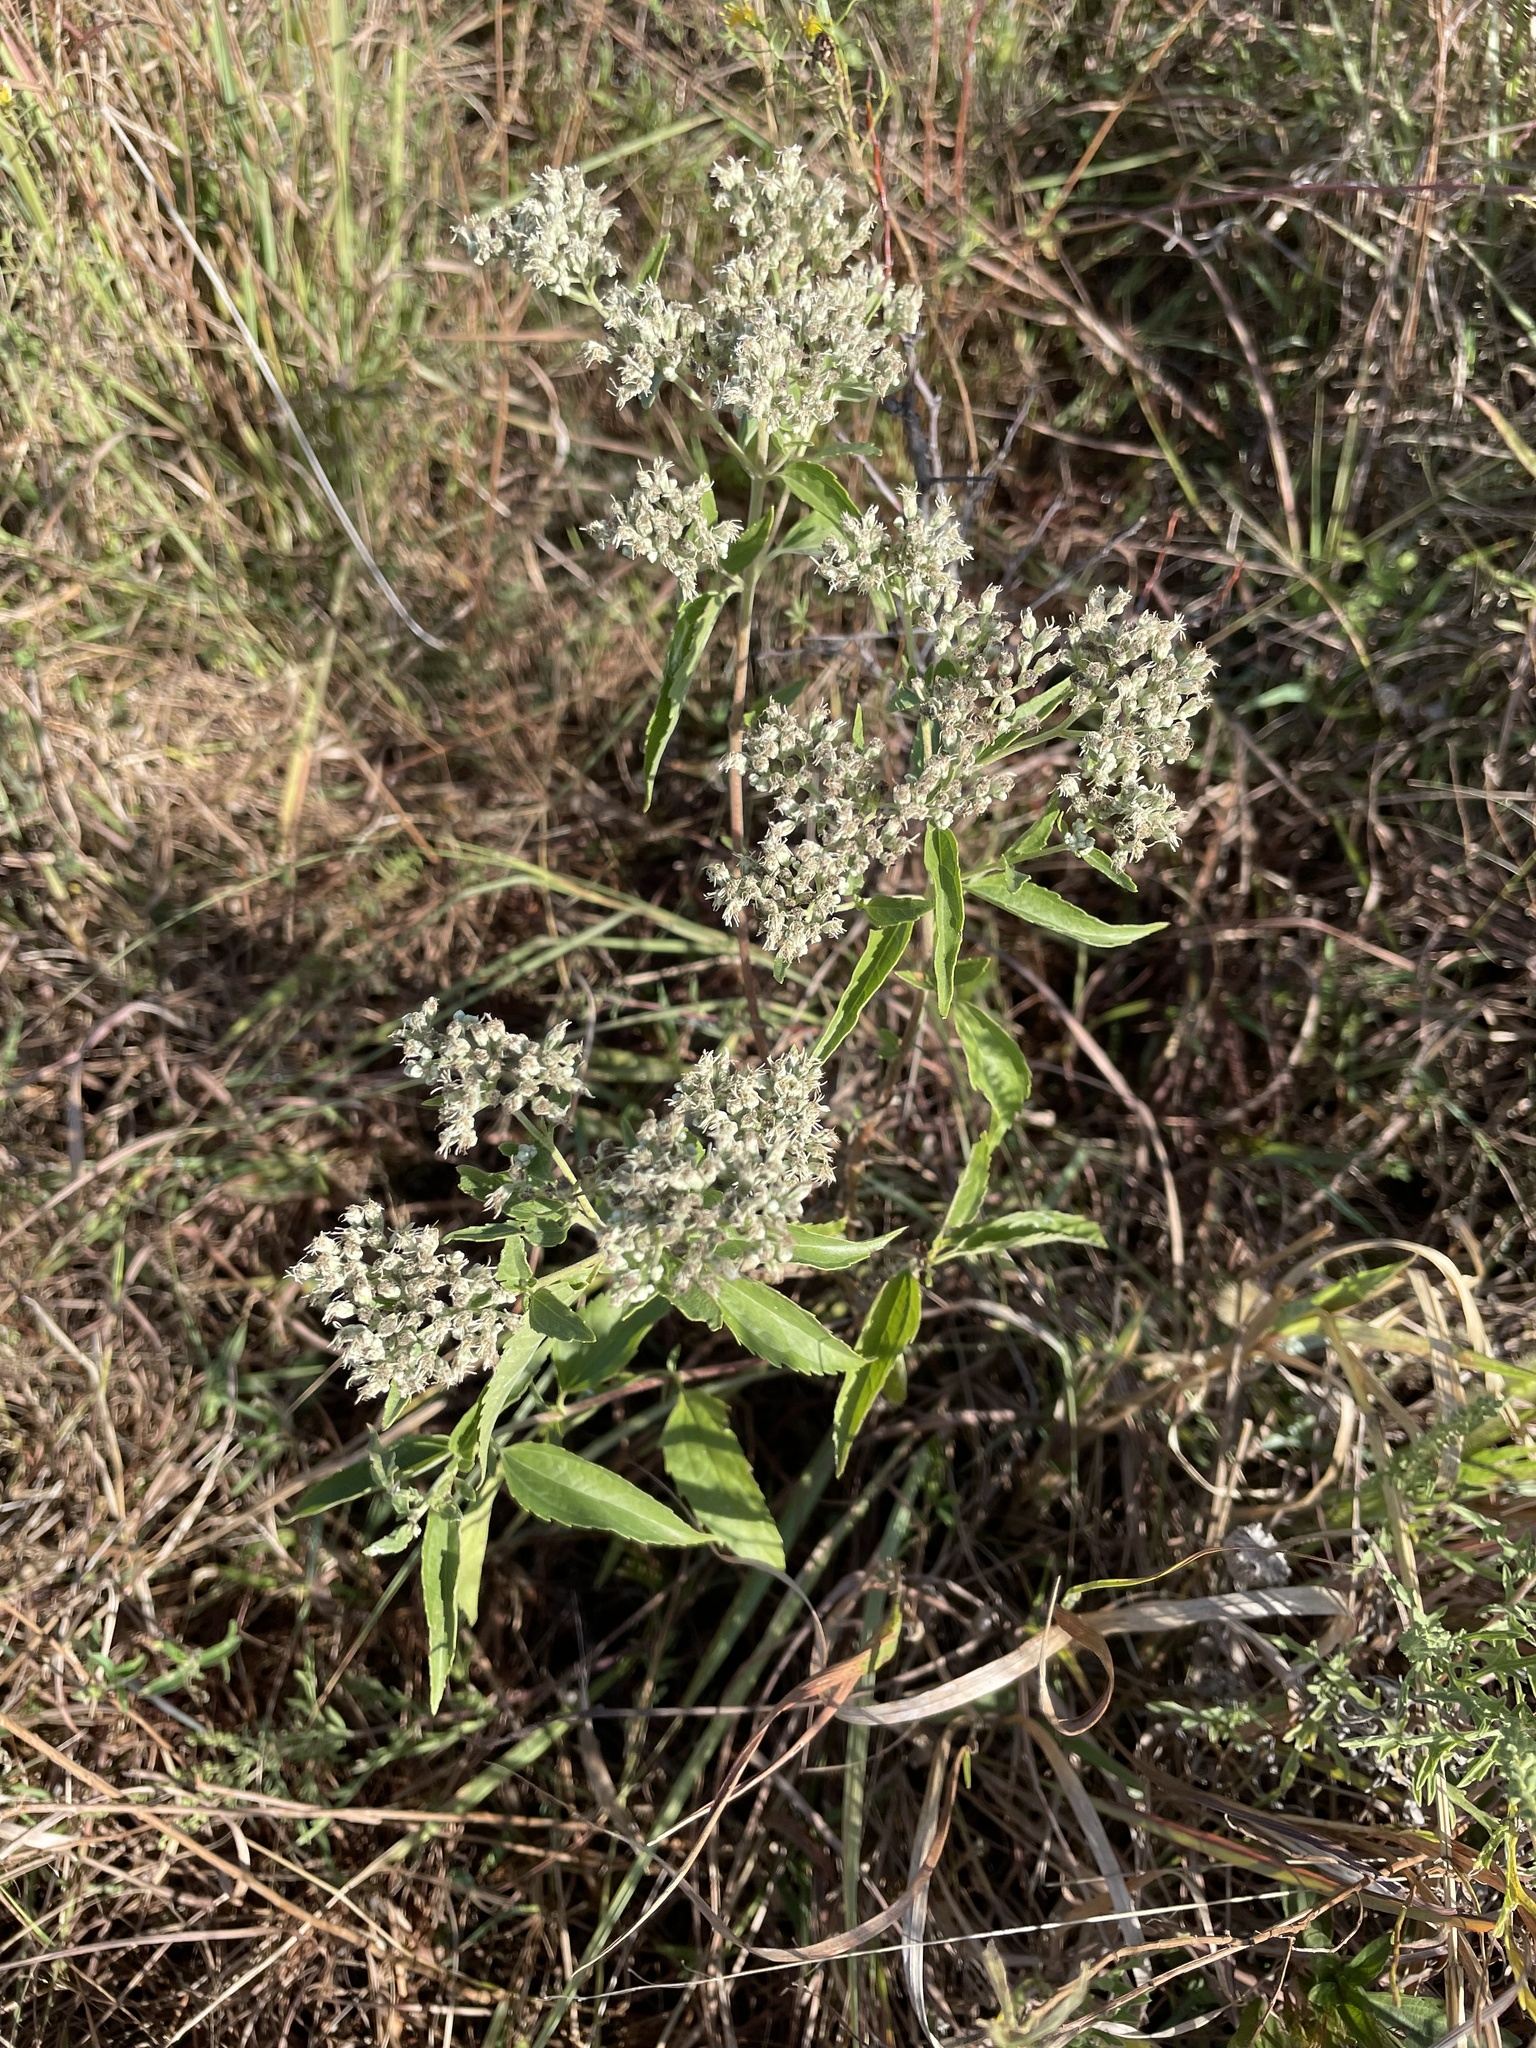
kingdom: Plantae
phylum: Tracheophyta
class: Magnoliopsida
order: Asterales
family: Asteraceae
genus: Eupatorium
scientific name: Eupatorium serotinum
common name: Late boneset
